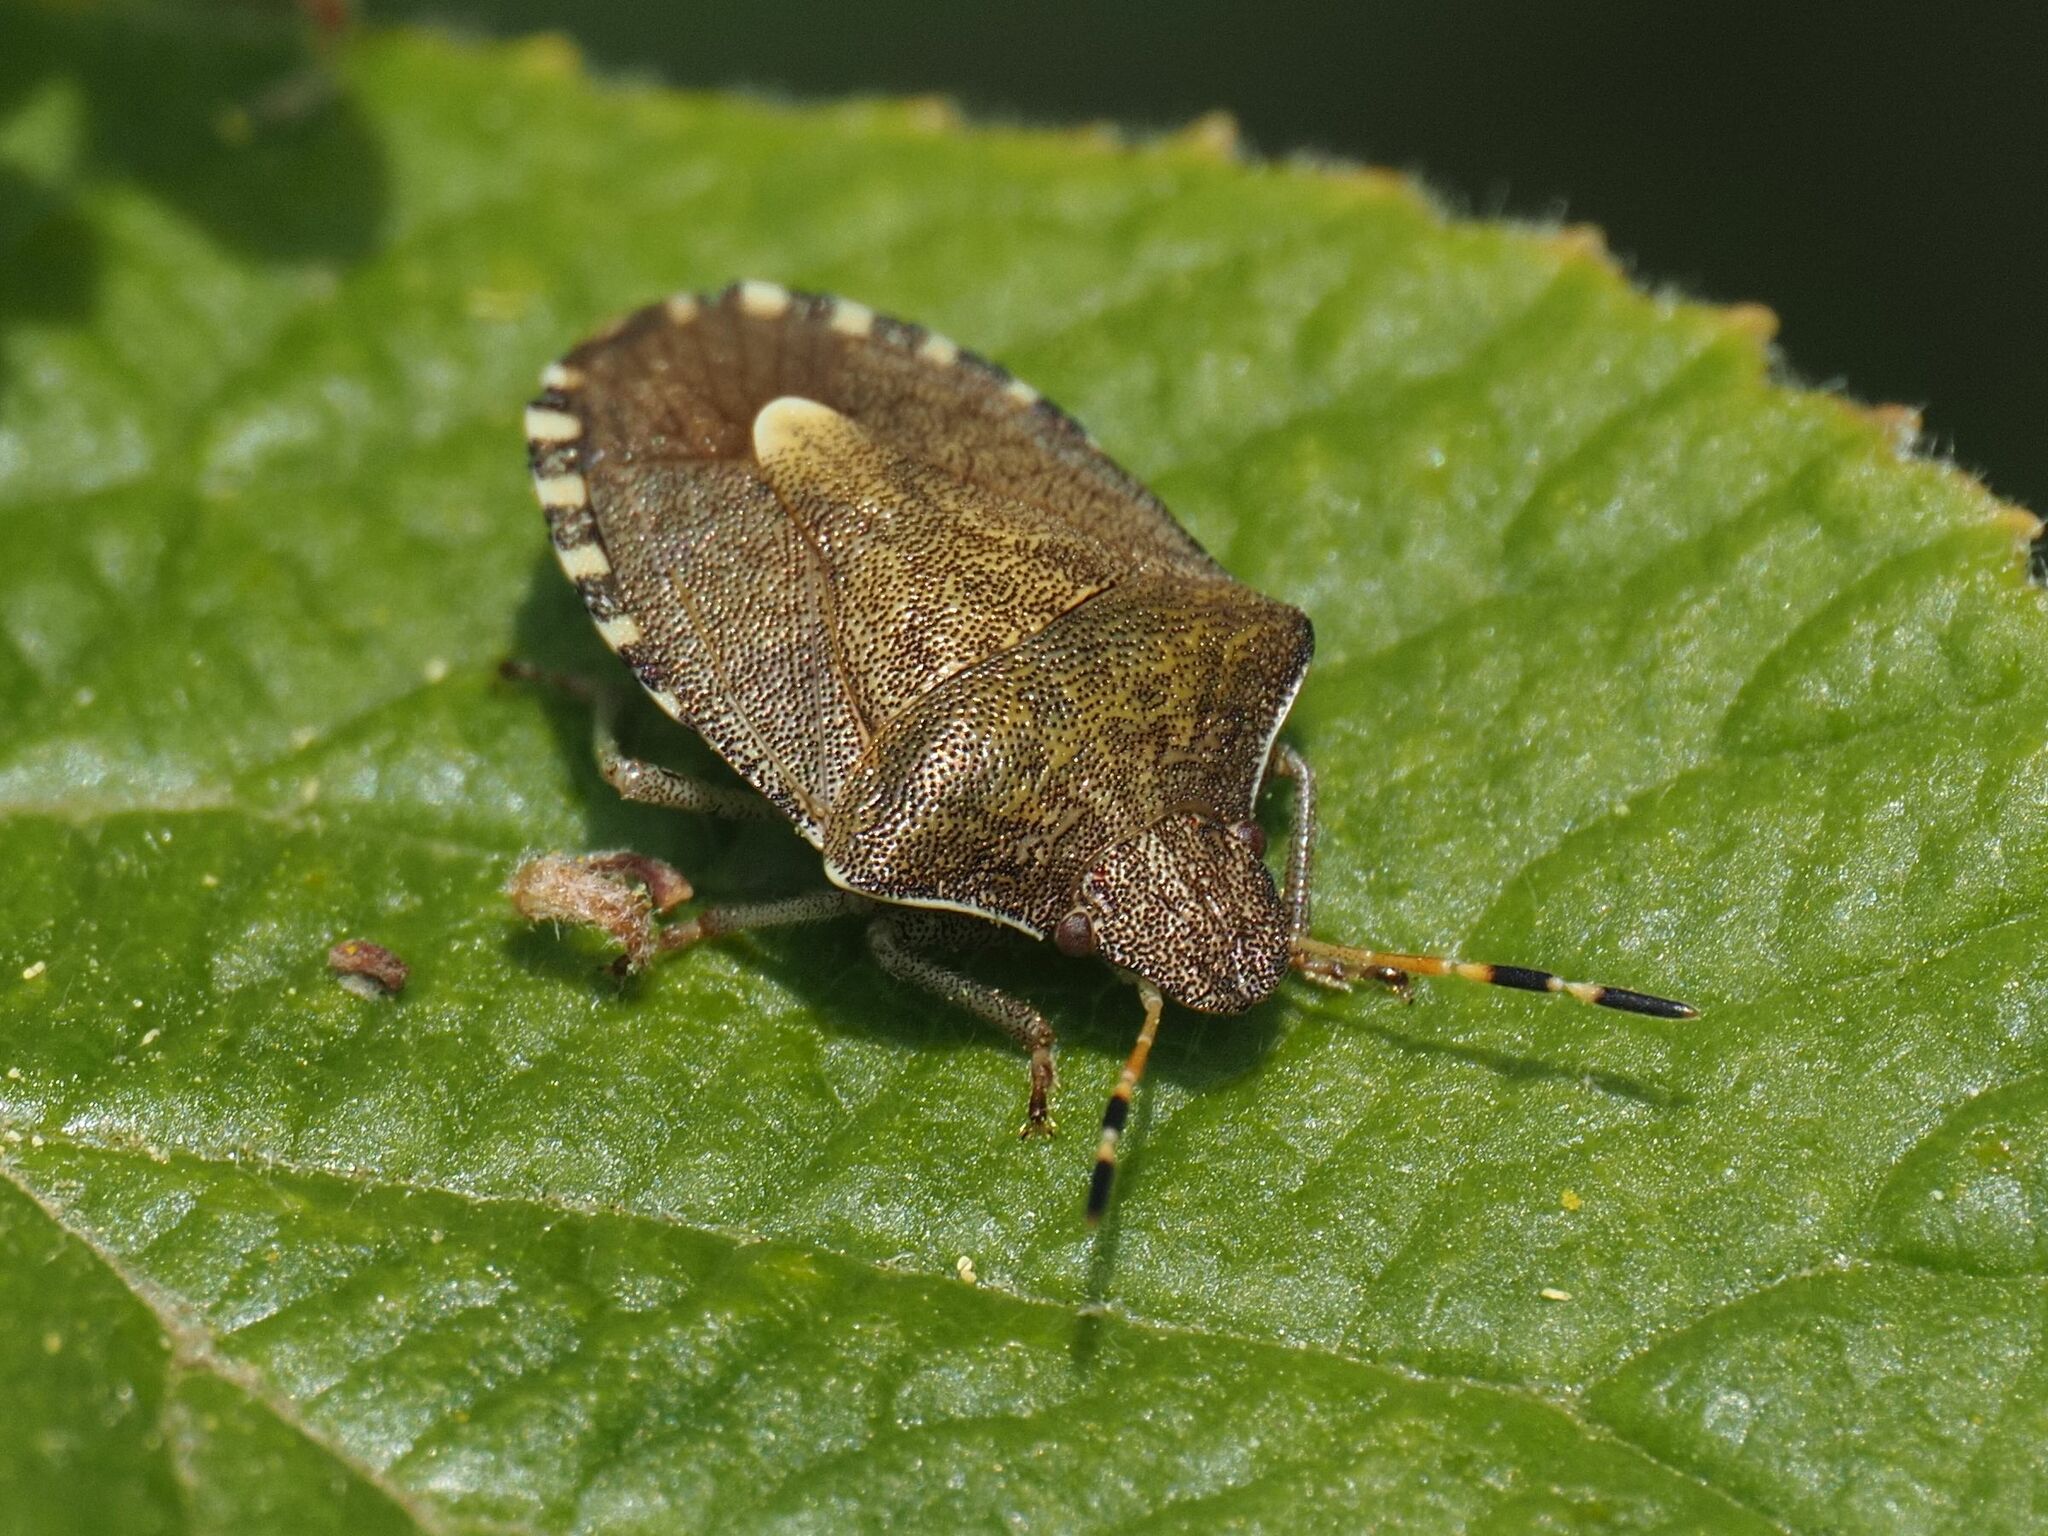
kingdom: Animalia
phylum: Arthropoda
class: Insecta
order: Hemiptera
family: Pentatomidae
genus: Holcostethus
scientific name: Holcostethus strictus
